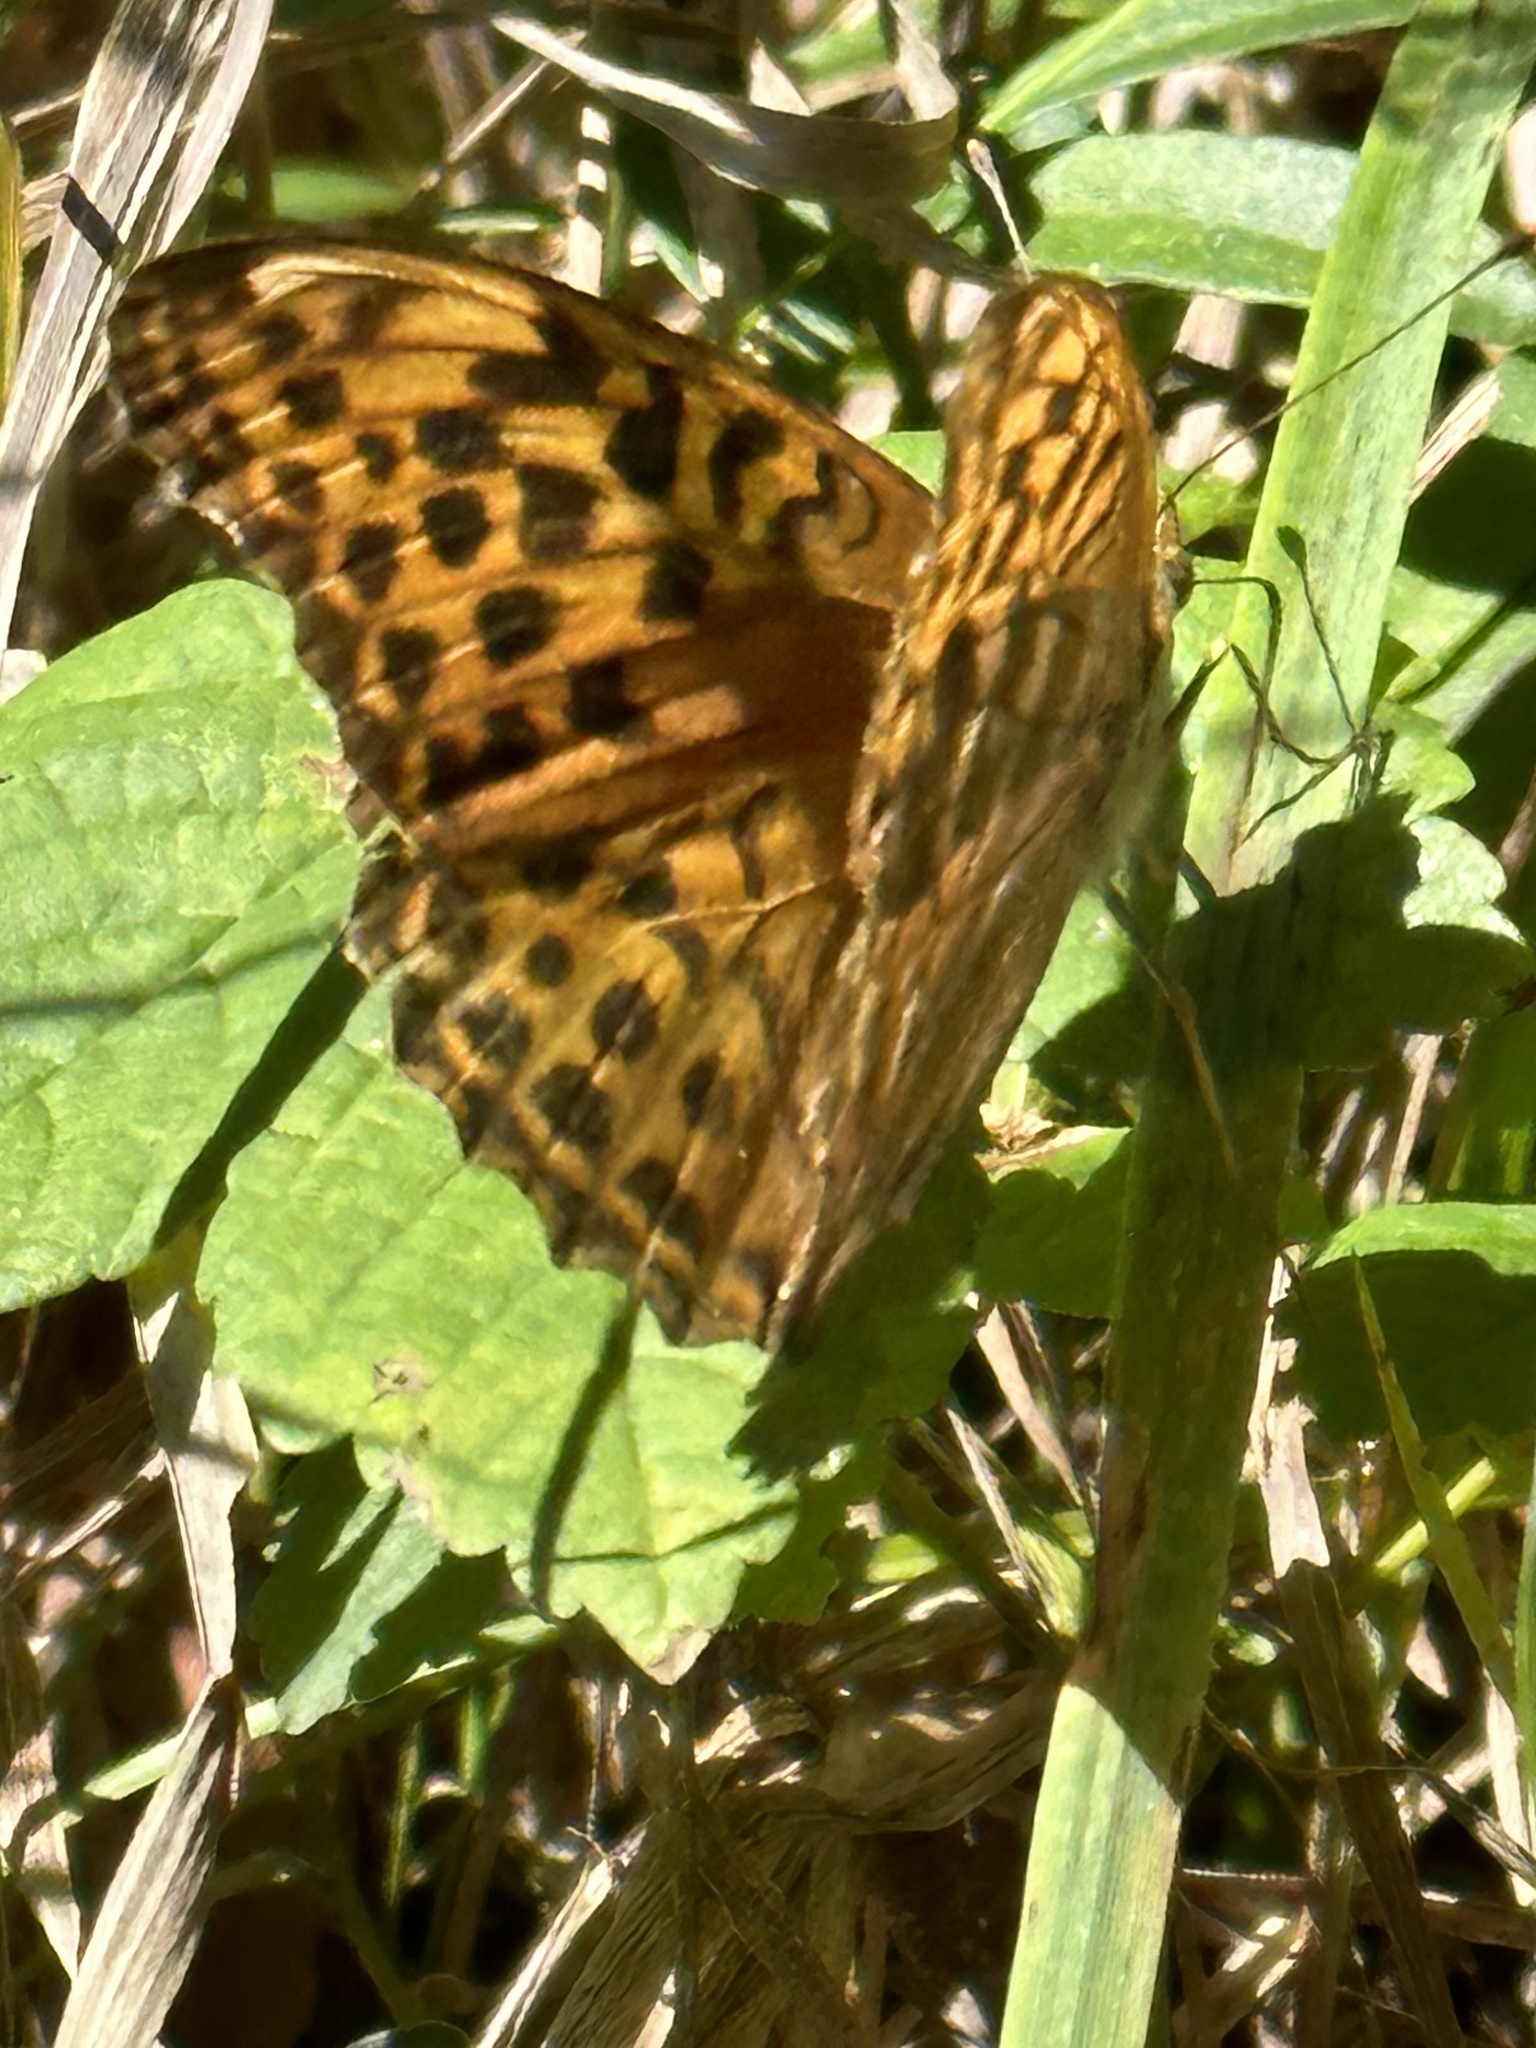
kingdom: Animalia
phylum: Arthropoda
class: Insecta
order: Lepidoptera
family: Nymphalidae
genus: Argynnis
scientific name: Argynnis paphia
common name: Silver-washed fritillary
